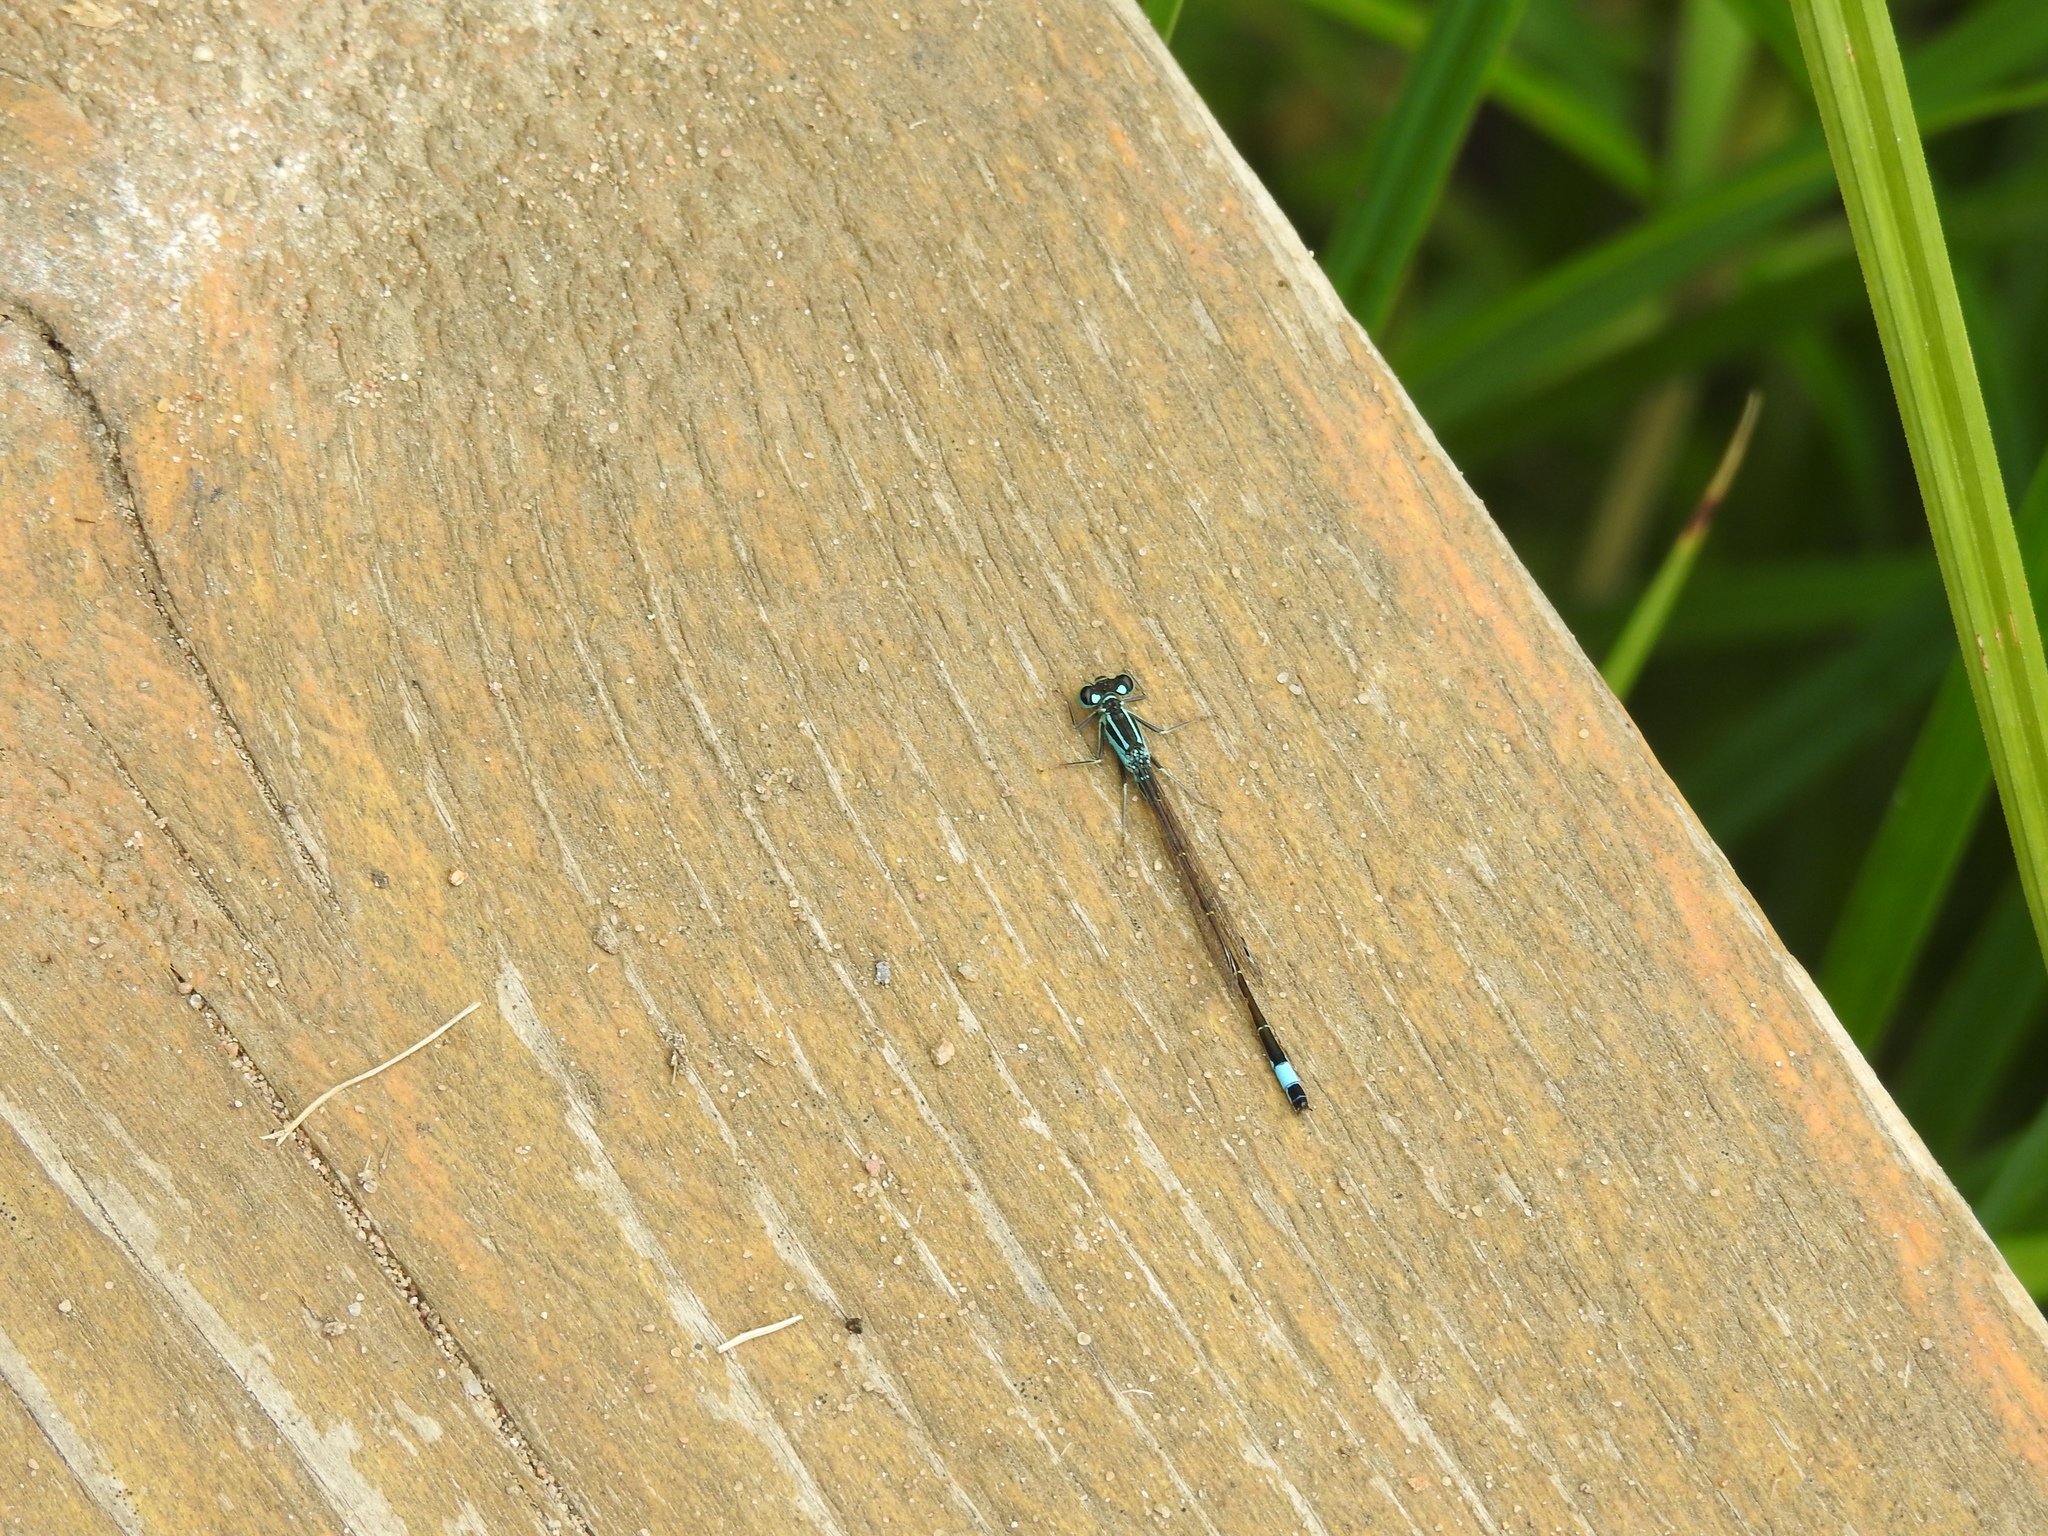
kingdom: Animalia
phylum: Arthropoda
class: Insecta
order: Odonata
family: Coenagrionidae
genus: Ischnura
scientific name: Ischnura elegans
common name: Blue-tailed damselfly
